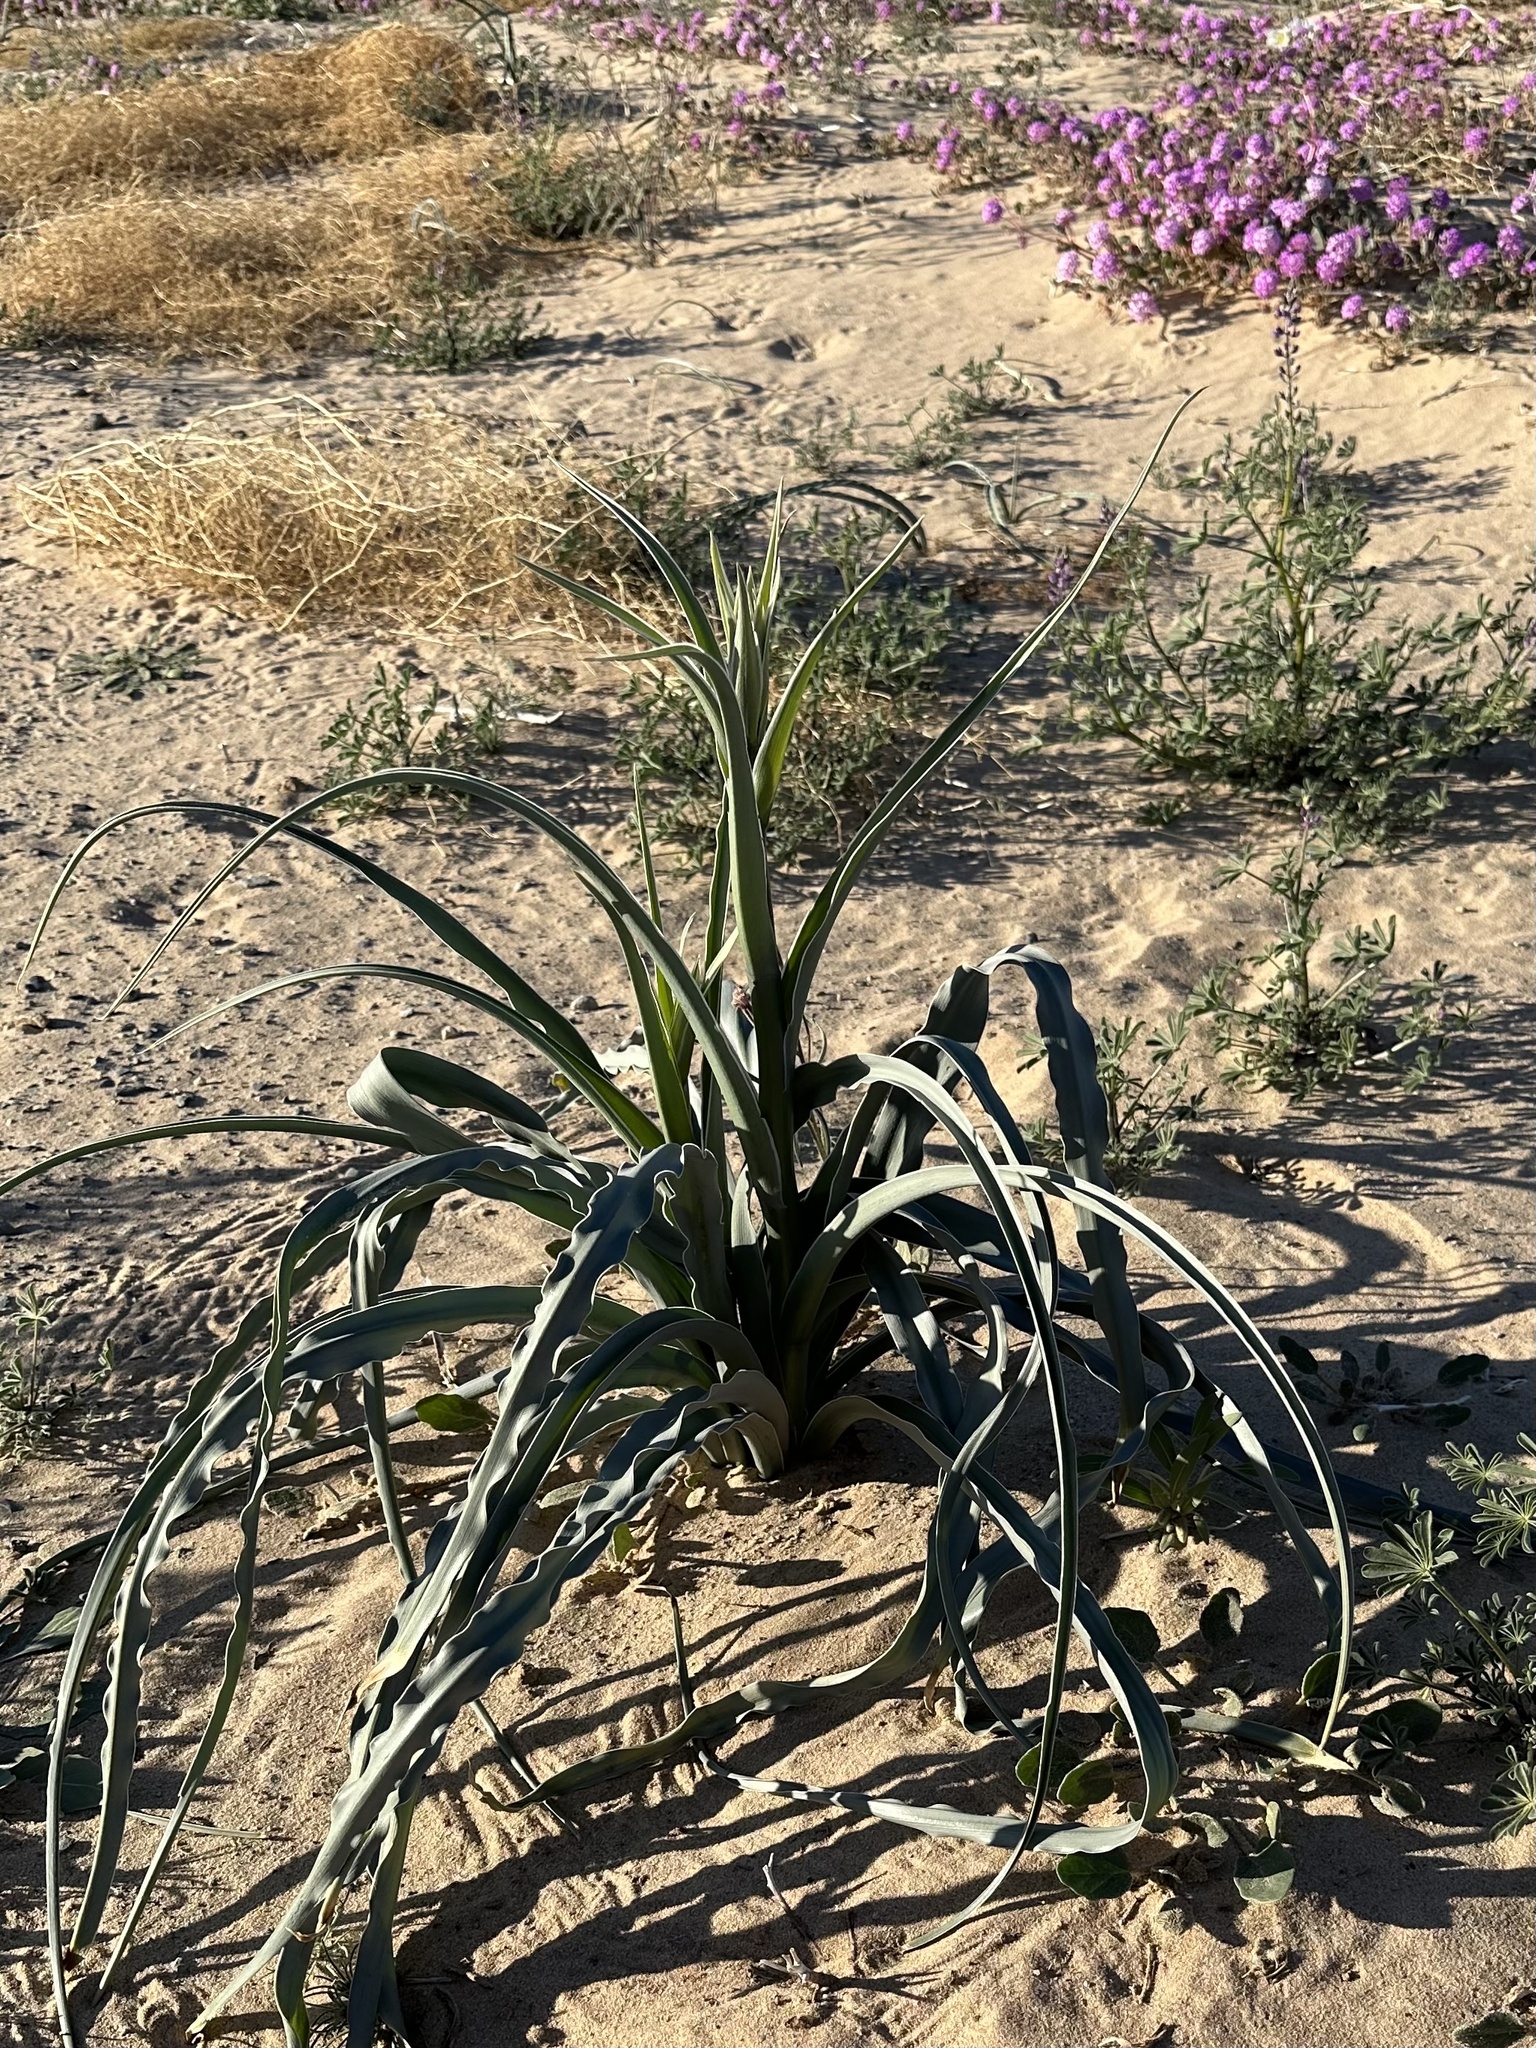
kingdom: Plantae
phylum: Tracheophyta
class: Liliopsida
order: Asparagales
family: Asparagaceae
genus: Hesperocallis
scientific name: Hesperocallis undulata
